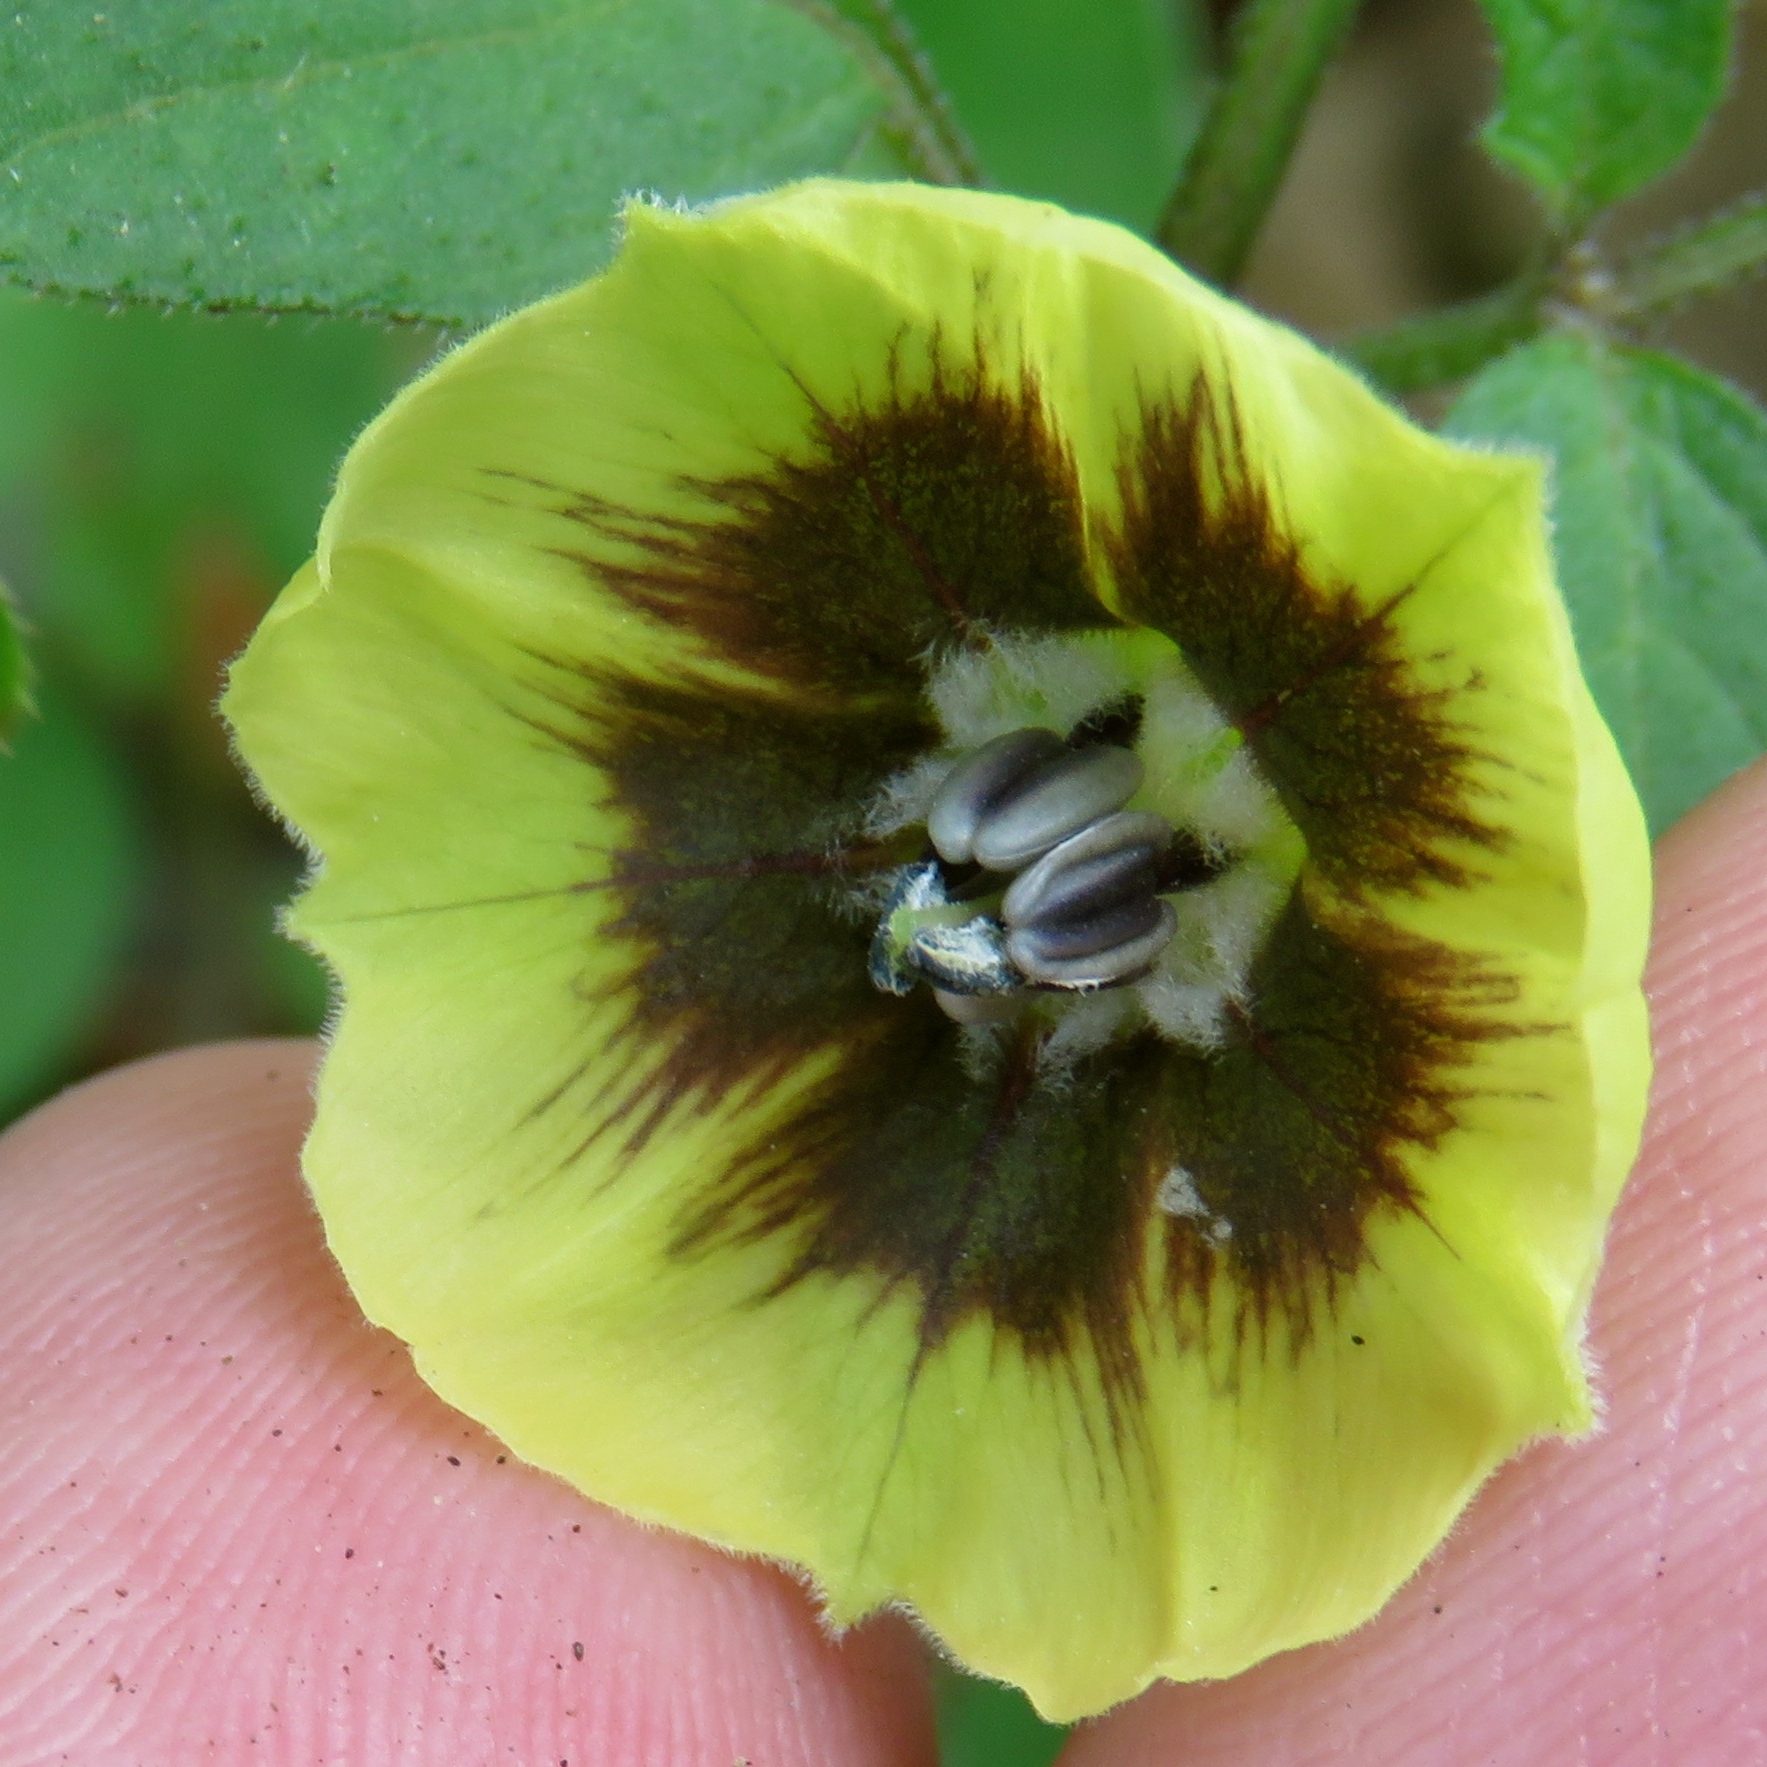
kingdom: Plantae
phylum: Tracheophyta
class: Magnoliopsida
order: Solanales
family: Solanaceae
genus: Physalis
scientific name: Physalis virginiana
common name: Virginia ground-cherry
